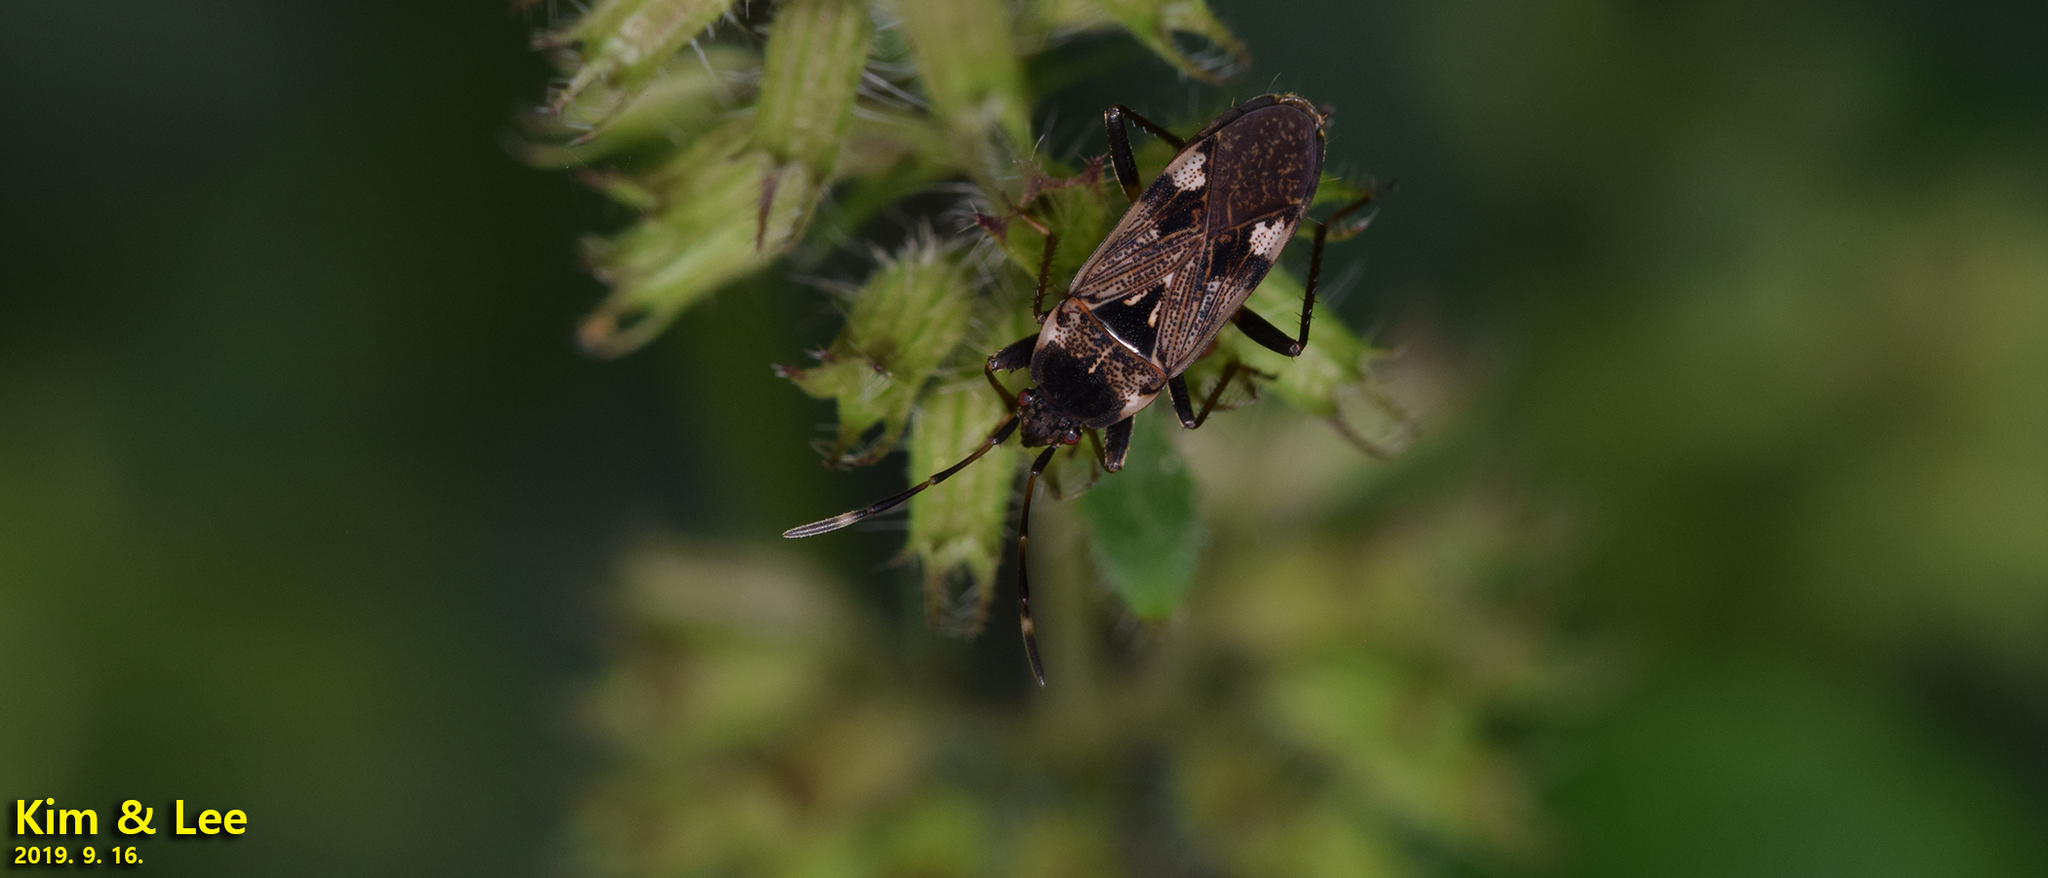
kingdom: Animalia
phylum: Arthropoda
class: Insecta
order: Hemiptera
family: Rhyparochromidae
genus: Panaorus
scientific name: Panaorus csikii
